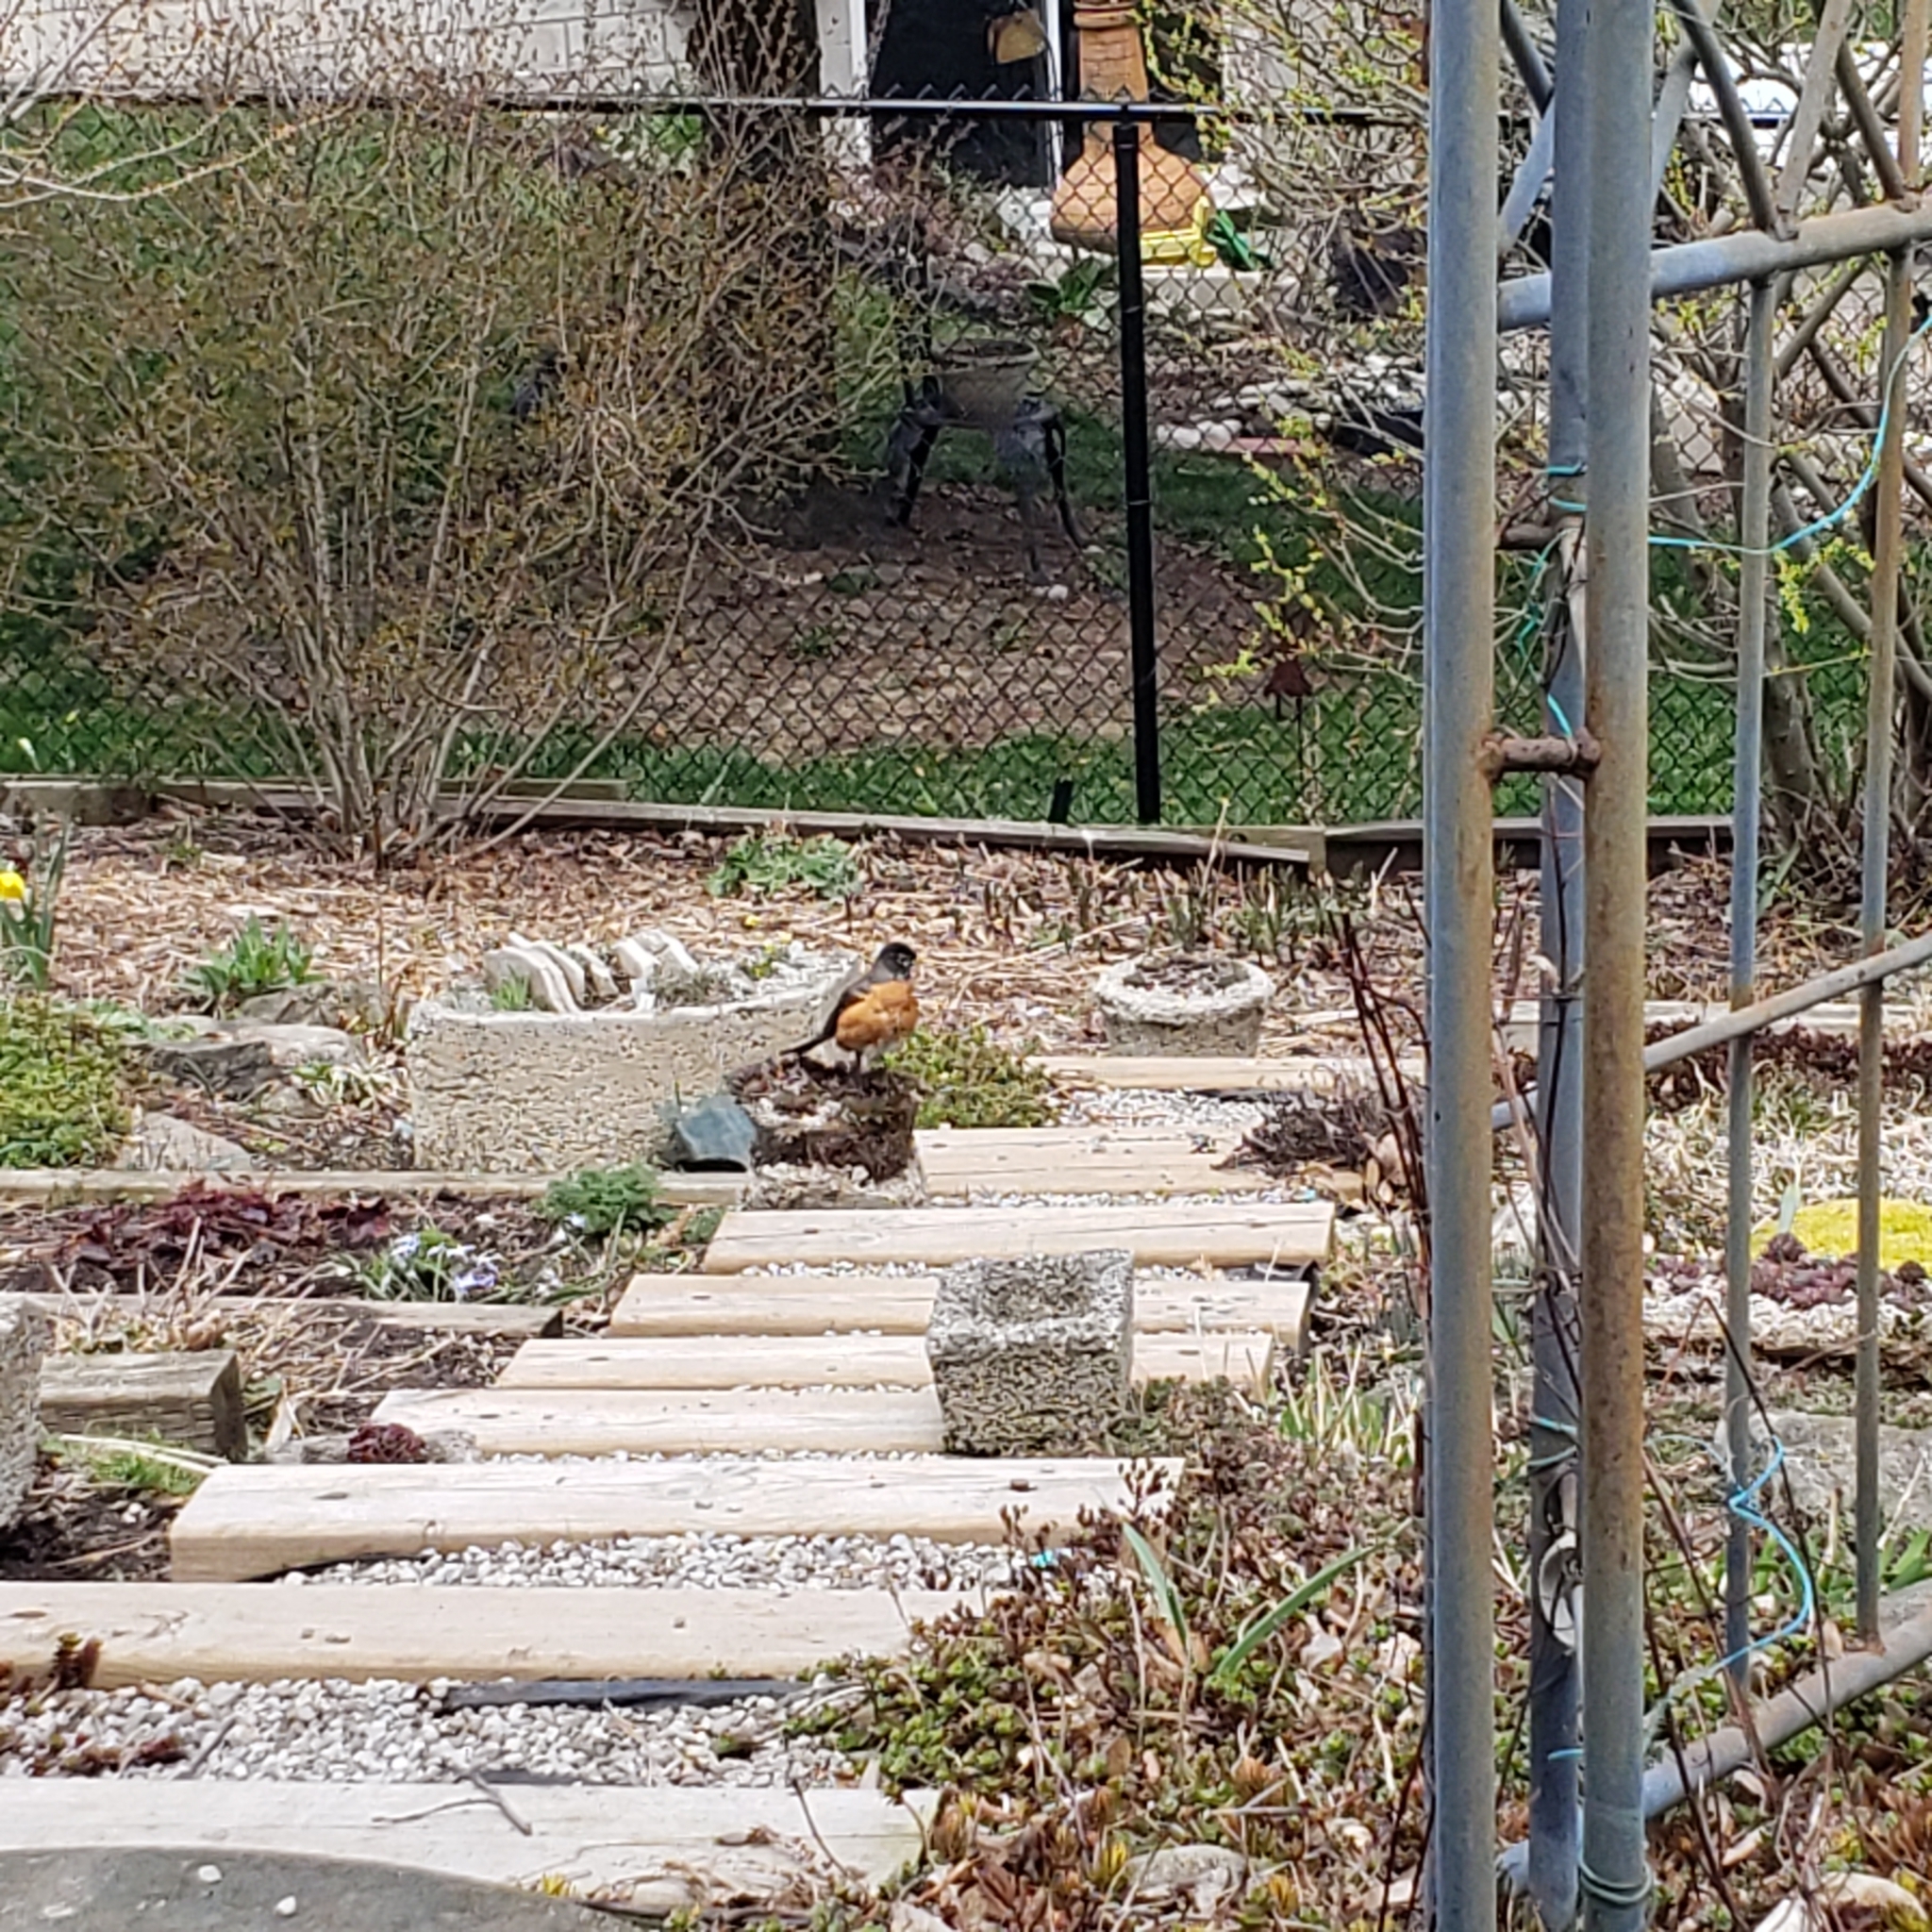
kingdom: Animalia
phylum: Chordata
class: Aves
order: Passeriformes
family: Turdidae
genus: Turdus
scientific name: Turdus migratorius
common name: American robin
